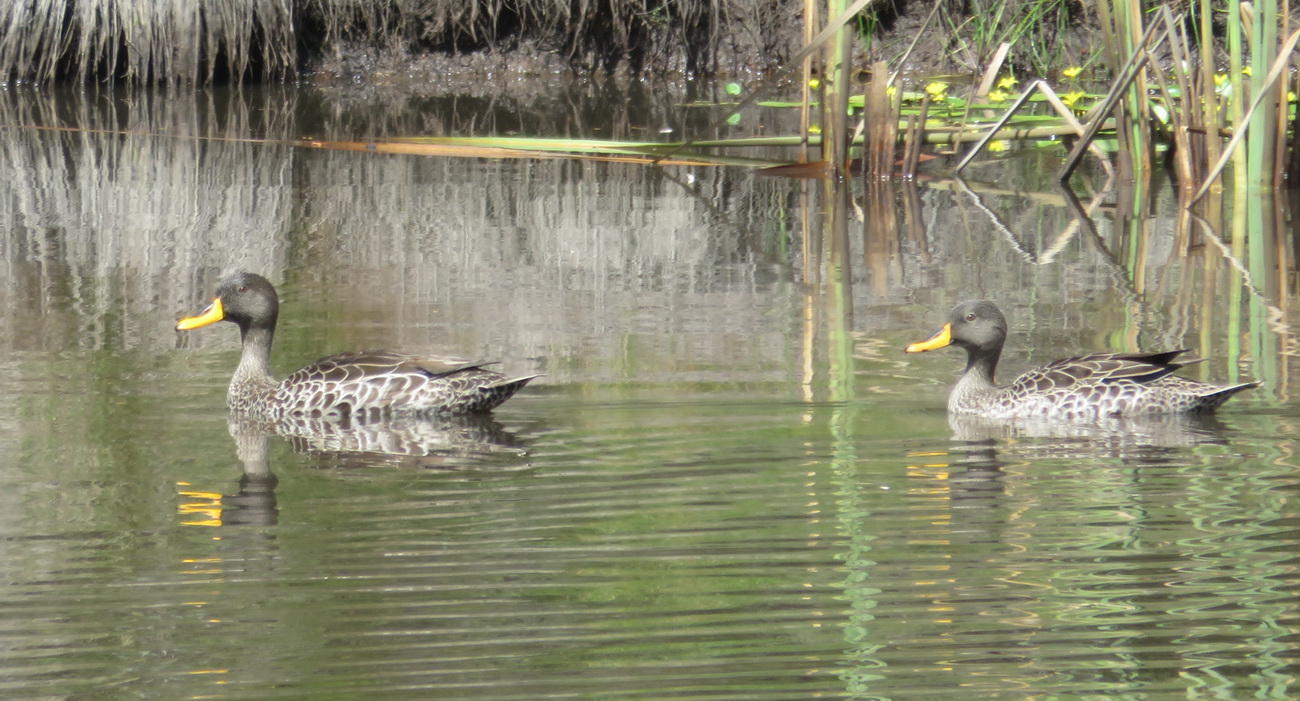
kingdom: Animalia
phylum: Chordata
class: Aves
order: Anseriformes
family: Anatidae
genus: Anas
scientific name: Anas undulata
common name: Yellow-billed duck
